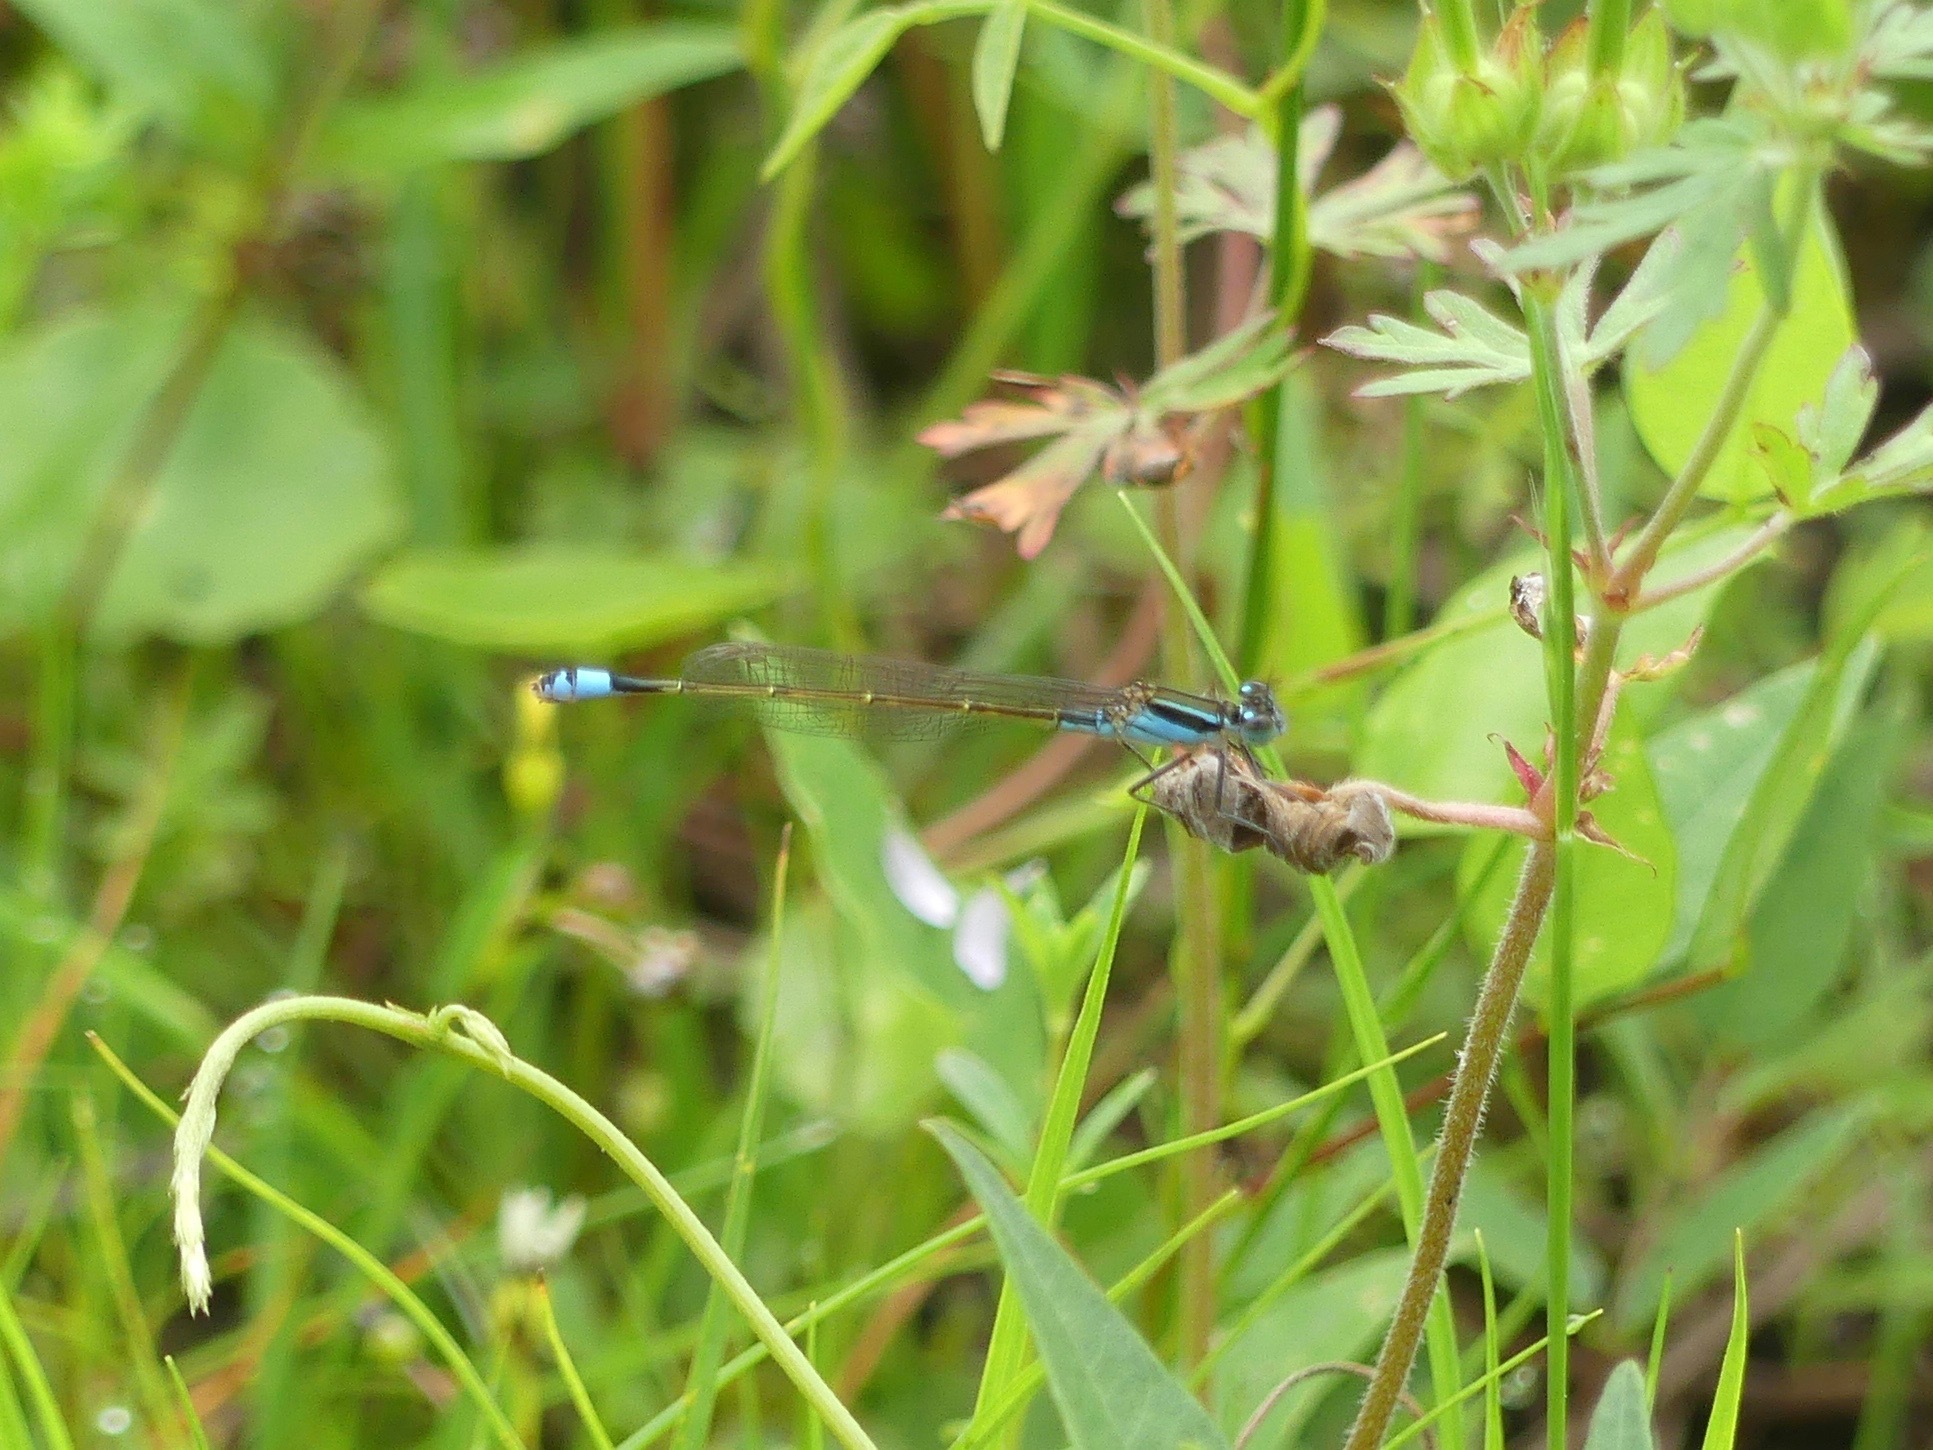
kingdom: Animalia
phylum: Arthropoda
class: Insecta
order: Odonata
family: Coenagrionidae
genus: Ischnura
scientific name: Ischnura ramburii
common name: Rambur's forktail
